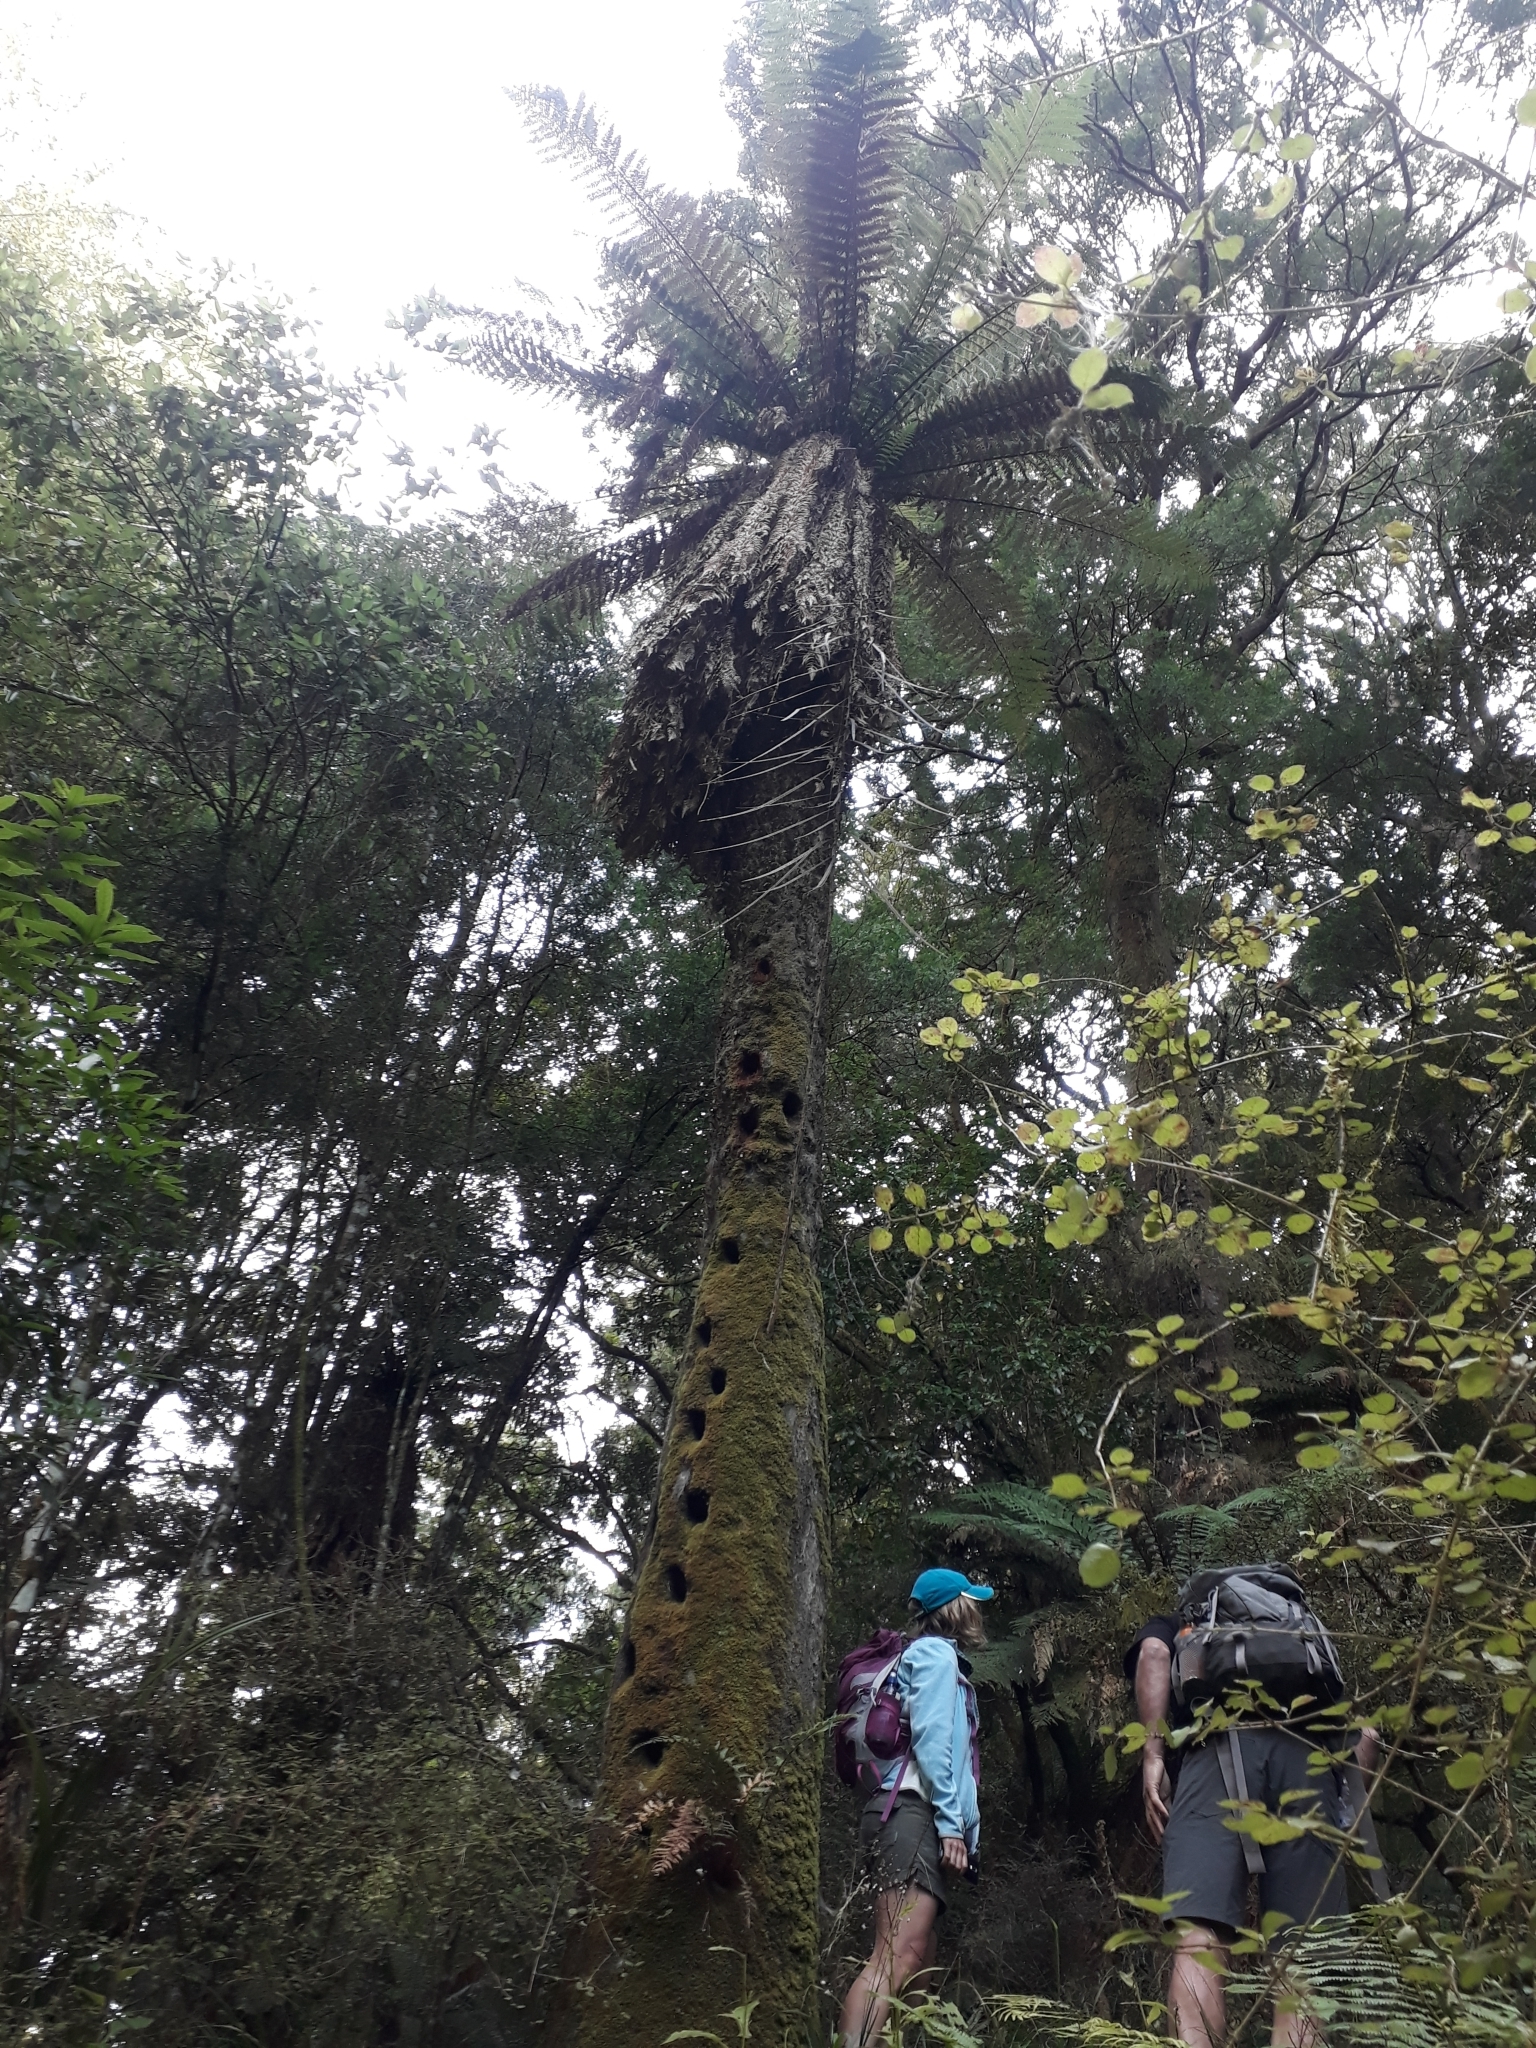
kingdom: Animalia
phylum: Chordata
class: Aves
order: Coraciiformes
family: Alcedinidae
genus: Todiramphus
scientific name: Todiramphus sanctus
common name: Sacred kingfisher
